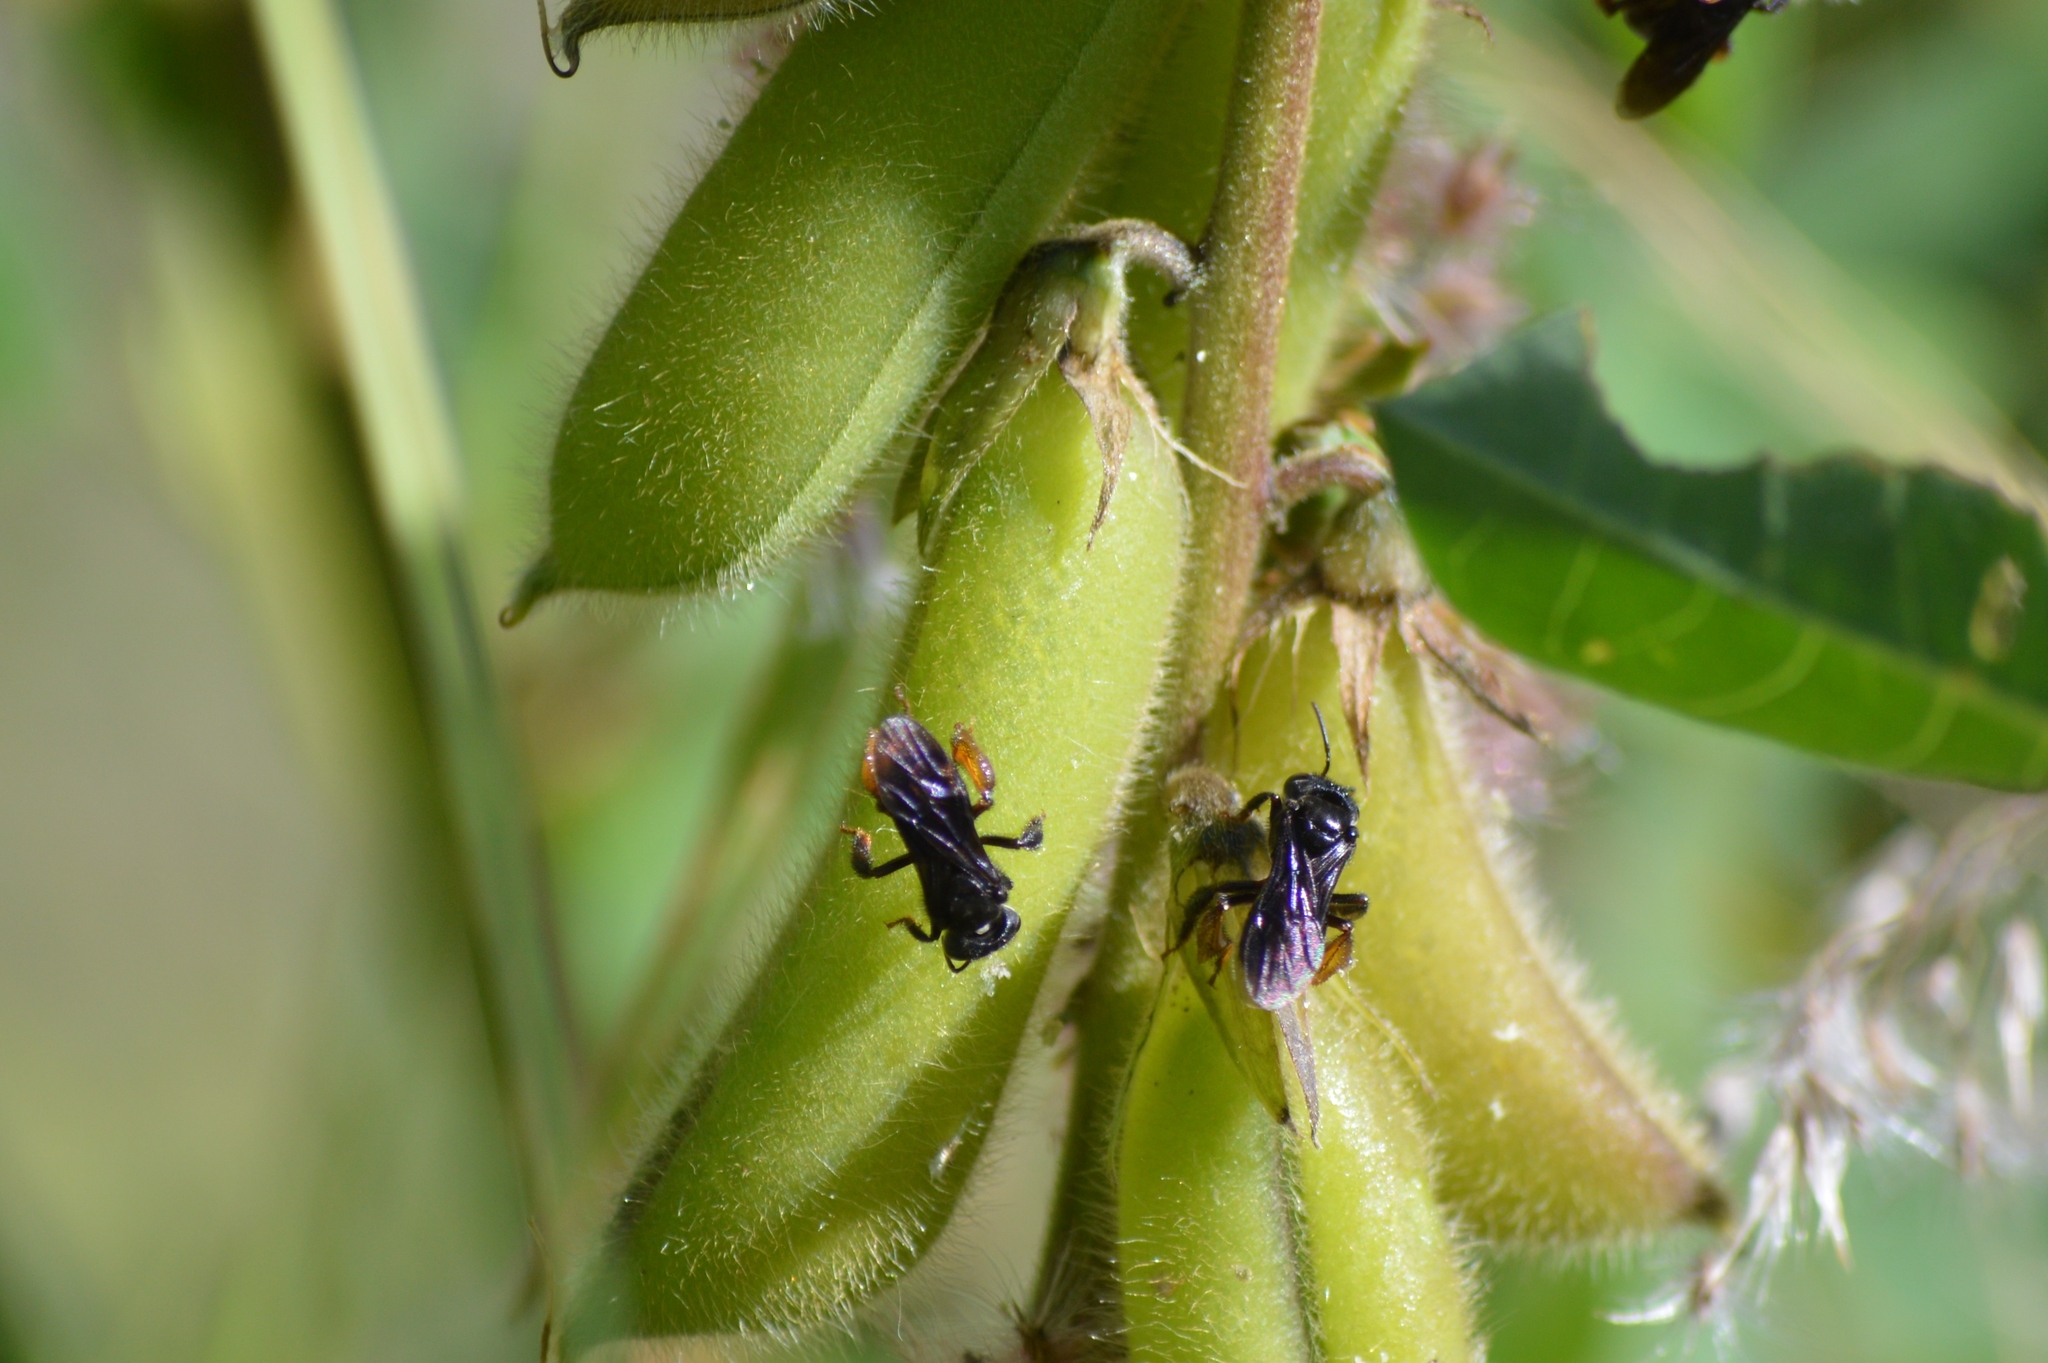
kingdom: Animalia
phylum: Arthropoda
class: Insecta
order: Hymenoptera
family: Apidae
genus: Trigona
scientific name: Trigona spinipes
